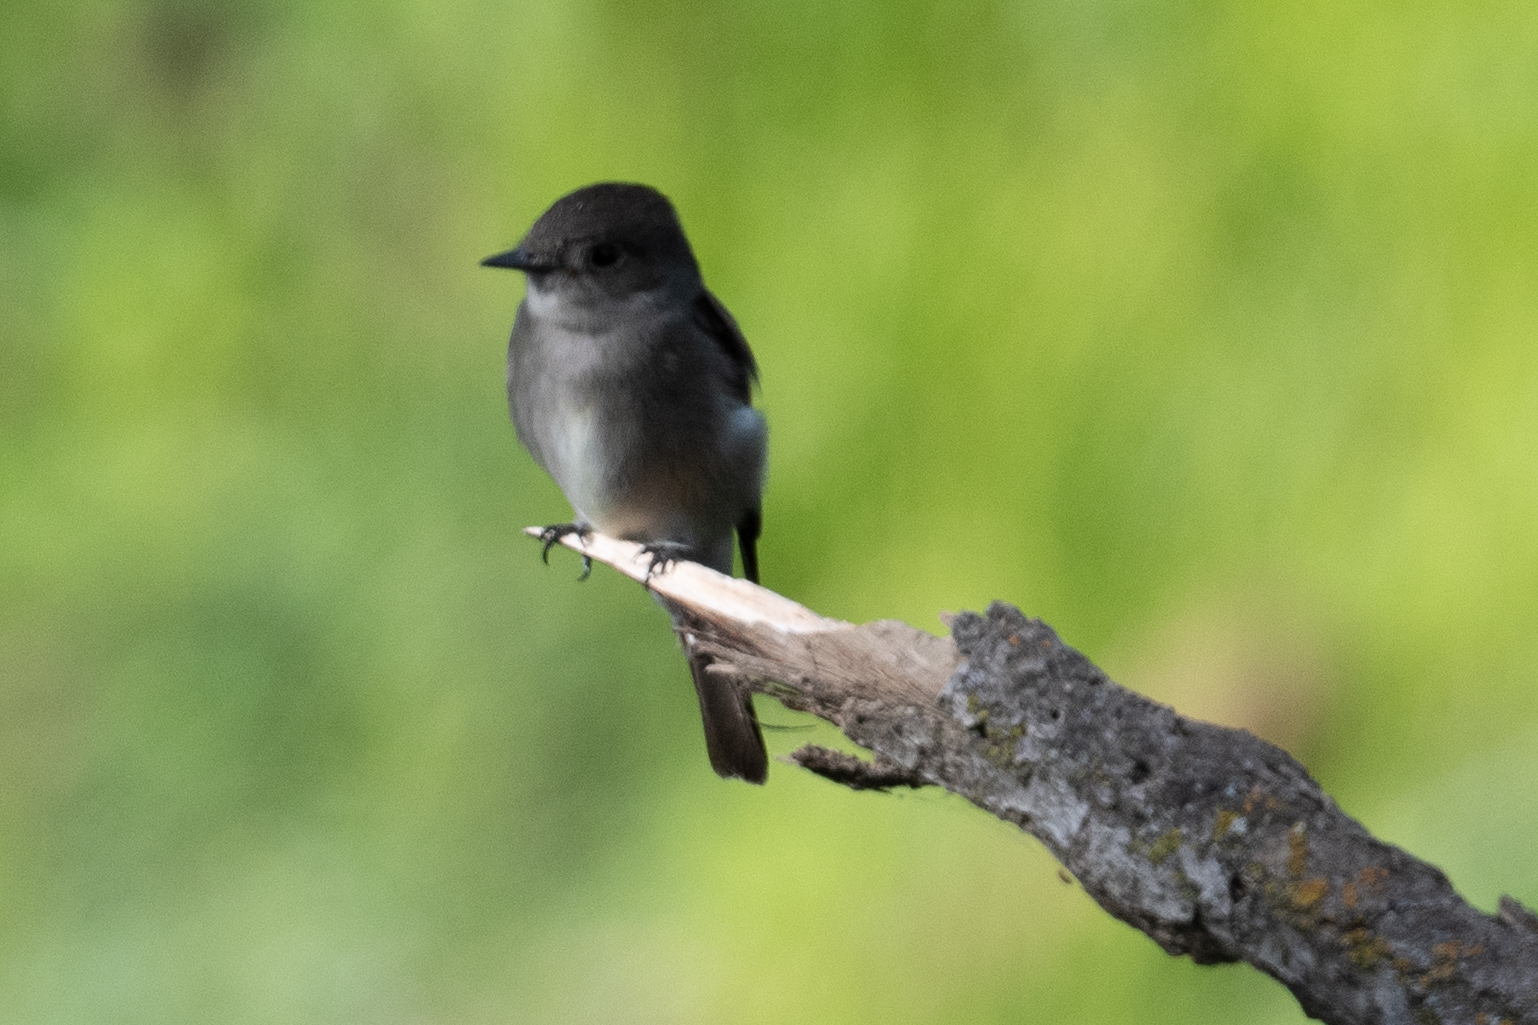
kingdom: Animalia
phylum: Chordata
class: Aves
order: Passeriformes
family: Tyrannidae
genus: Contopus
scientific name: Contopus sordidulus
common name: Western wood-pewee
